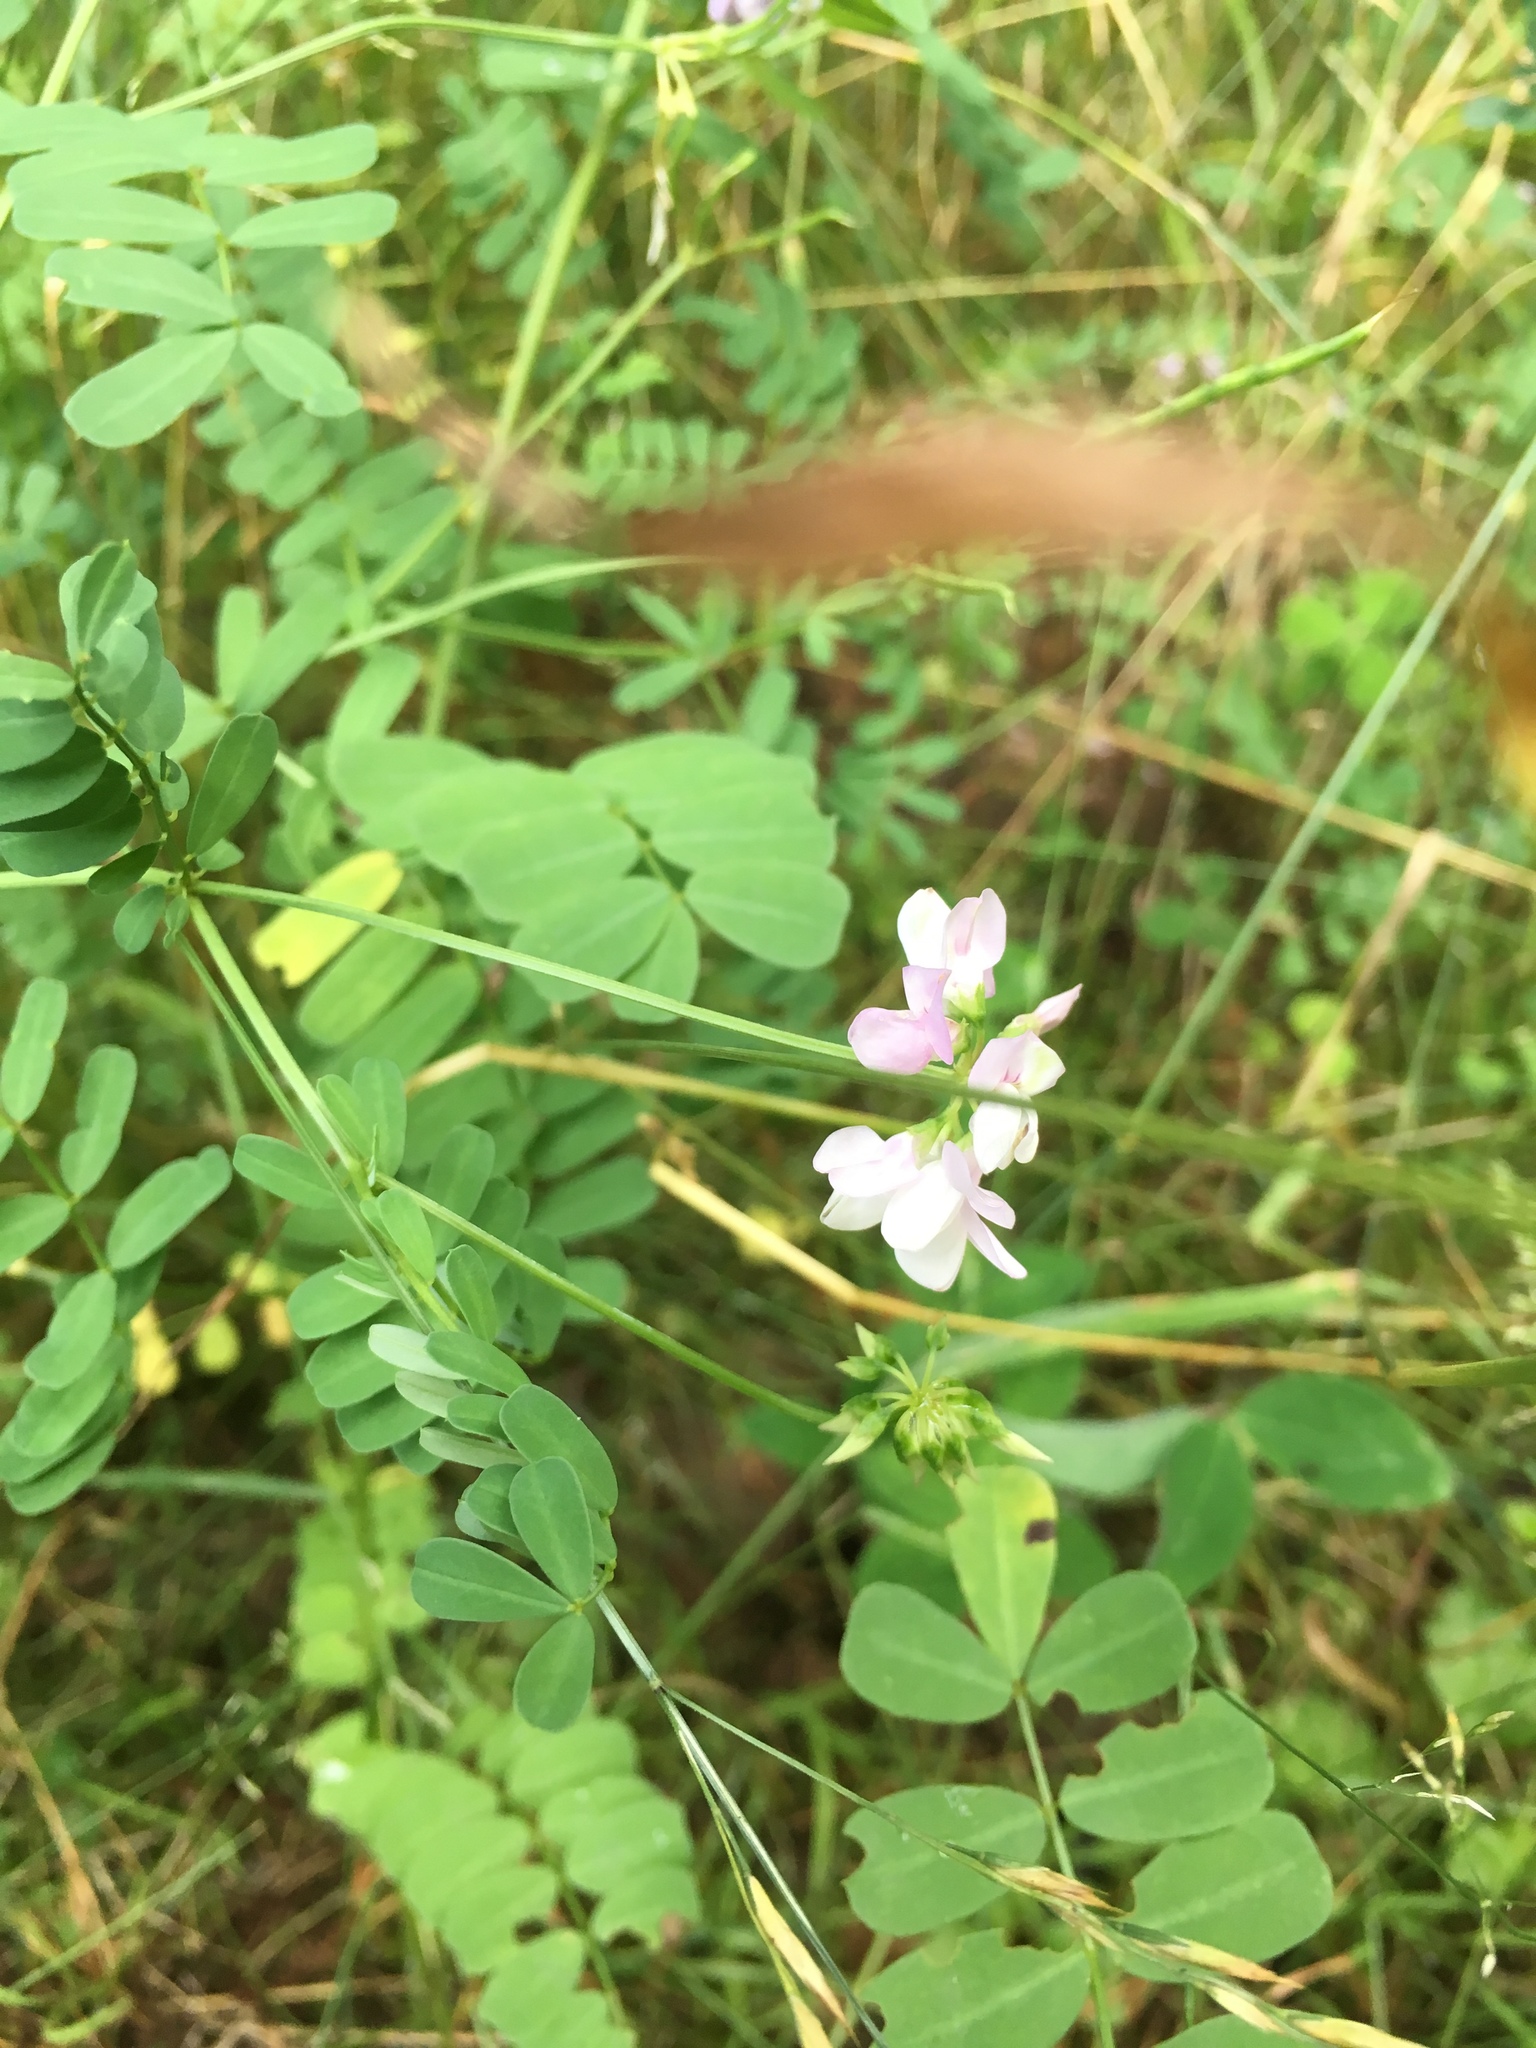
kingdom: Plantae
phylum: Tracheophyta
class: Magnoliopsida
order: Fabales
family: Fabaceae
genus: Coronilla
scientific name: Coronilla varia
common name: Crownvetch
